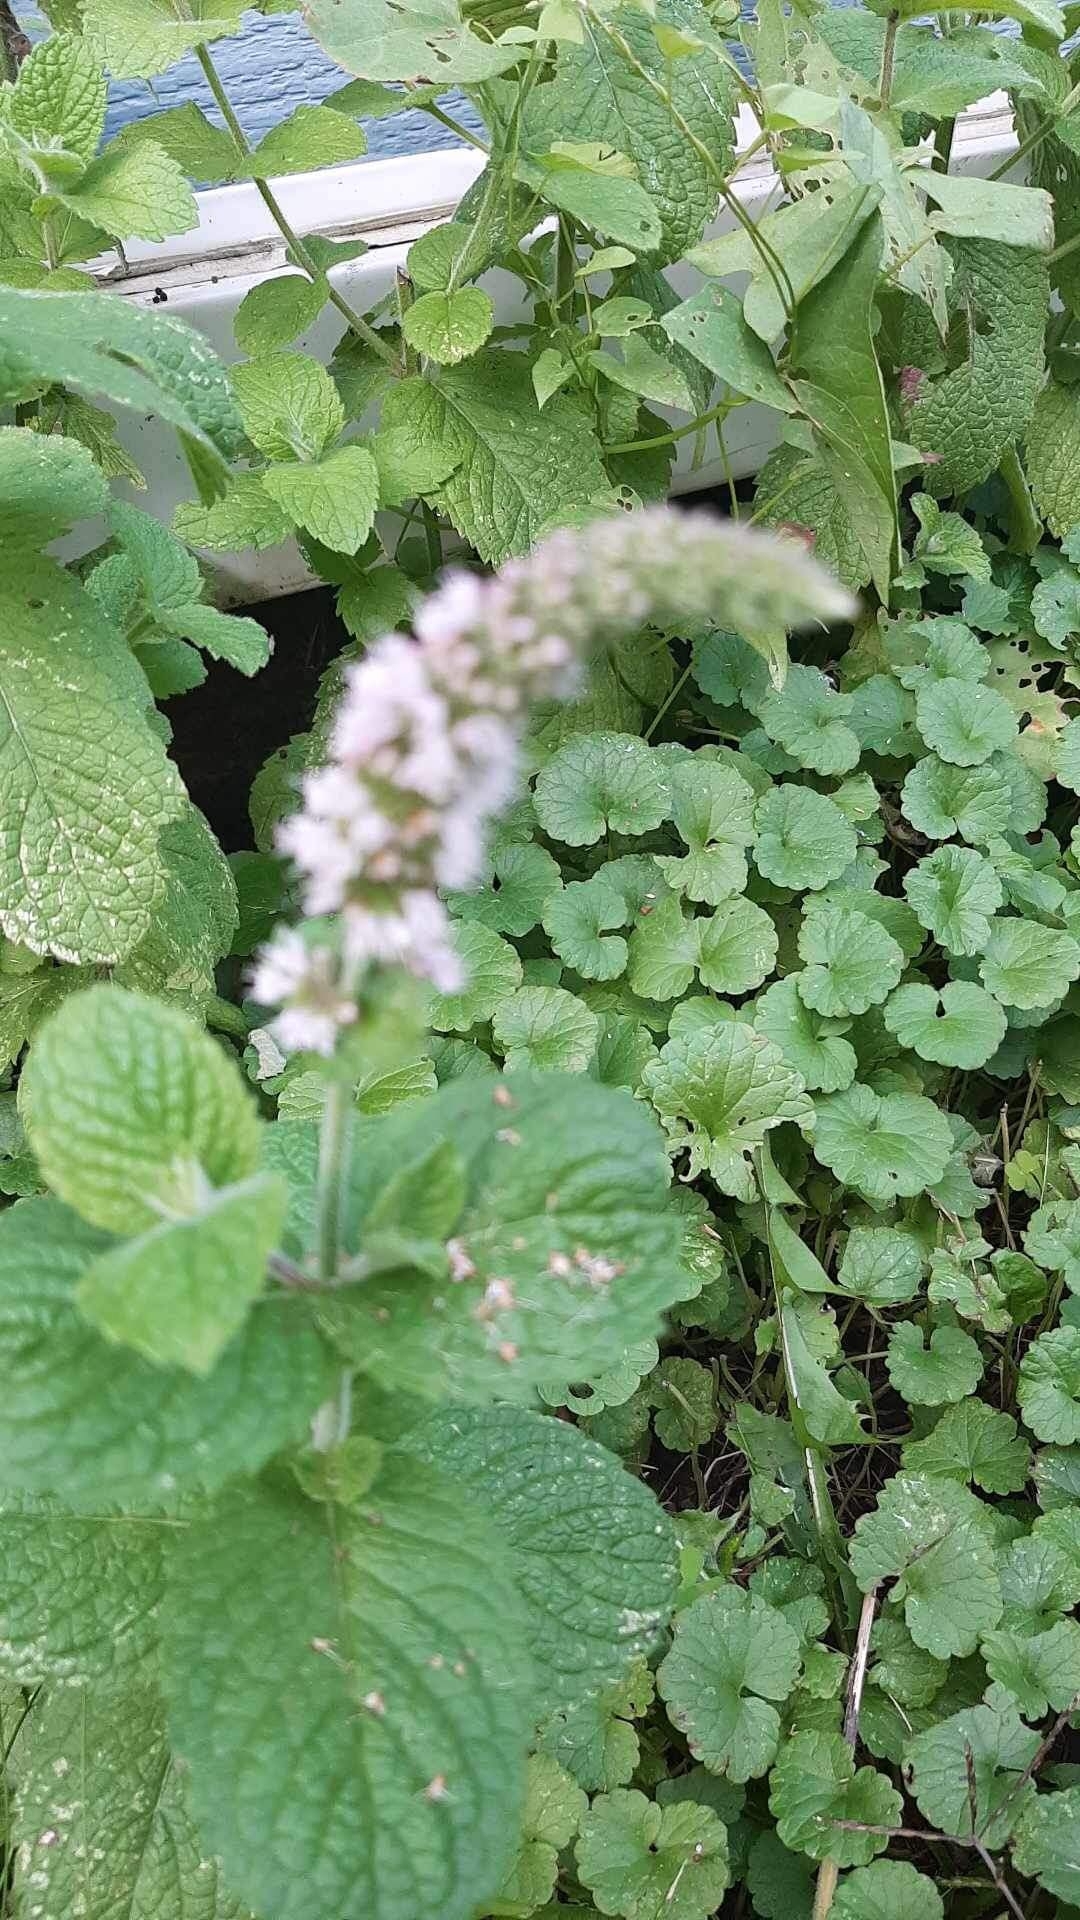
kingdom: Plantae
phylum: Tracheophyta
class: Magnoliopsida
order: Lamiales
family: Lamiaceae
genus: Mentha
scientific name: Mentha suaveolens
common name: Apple mint
